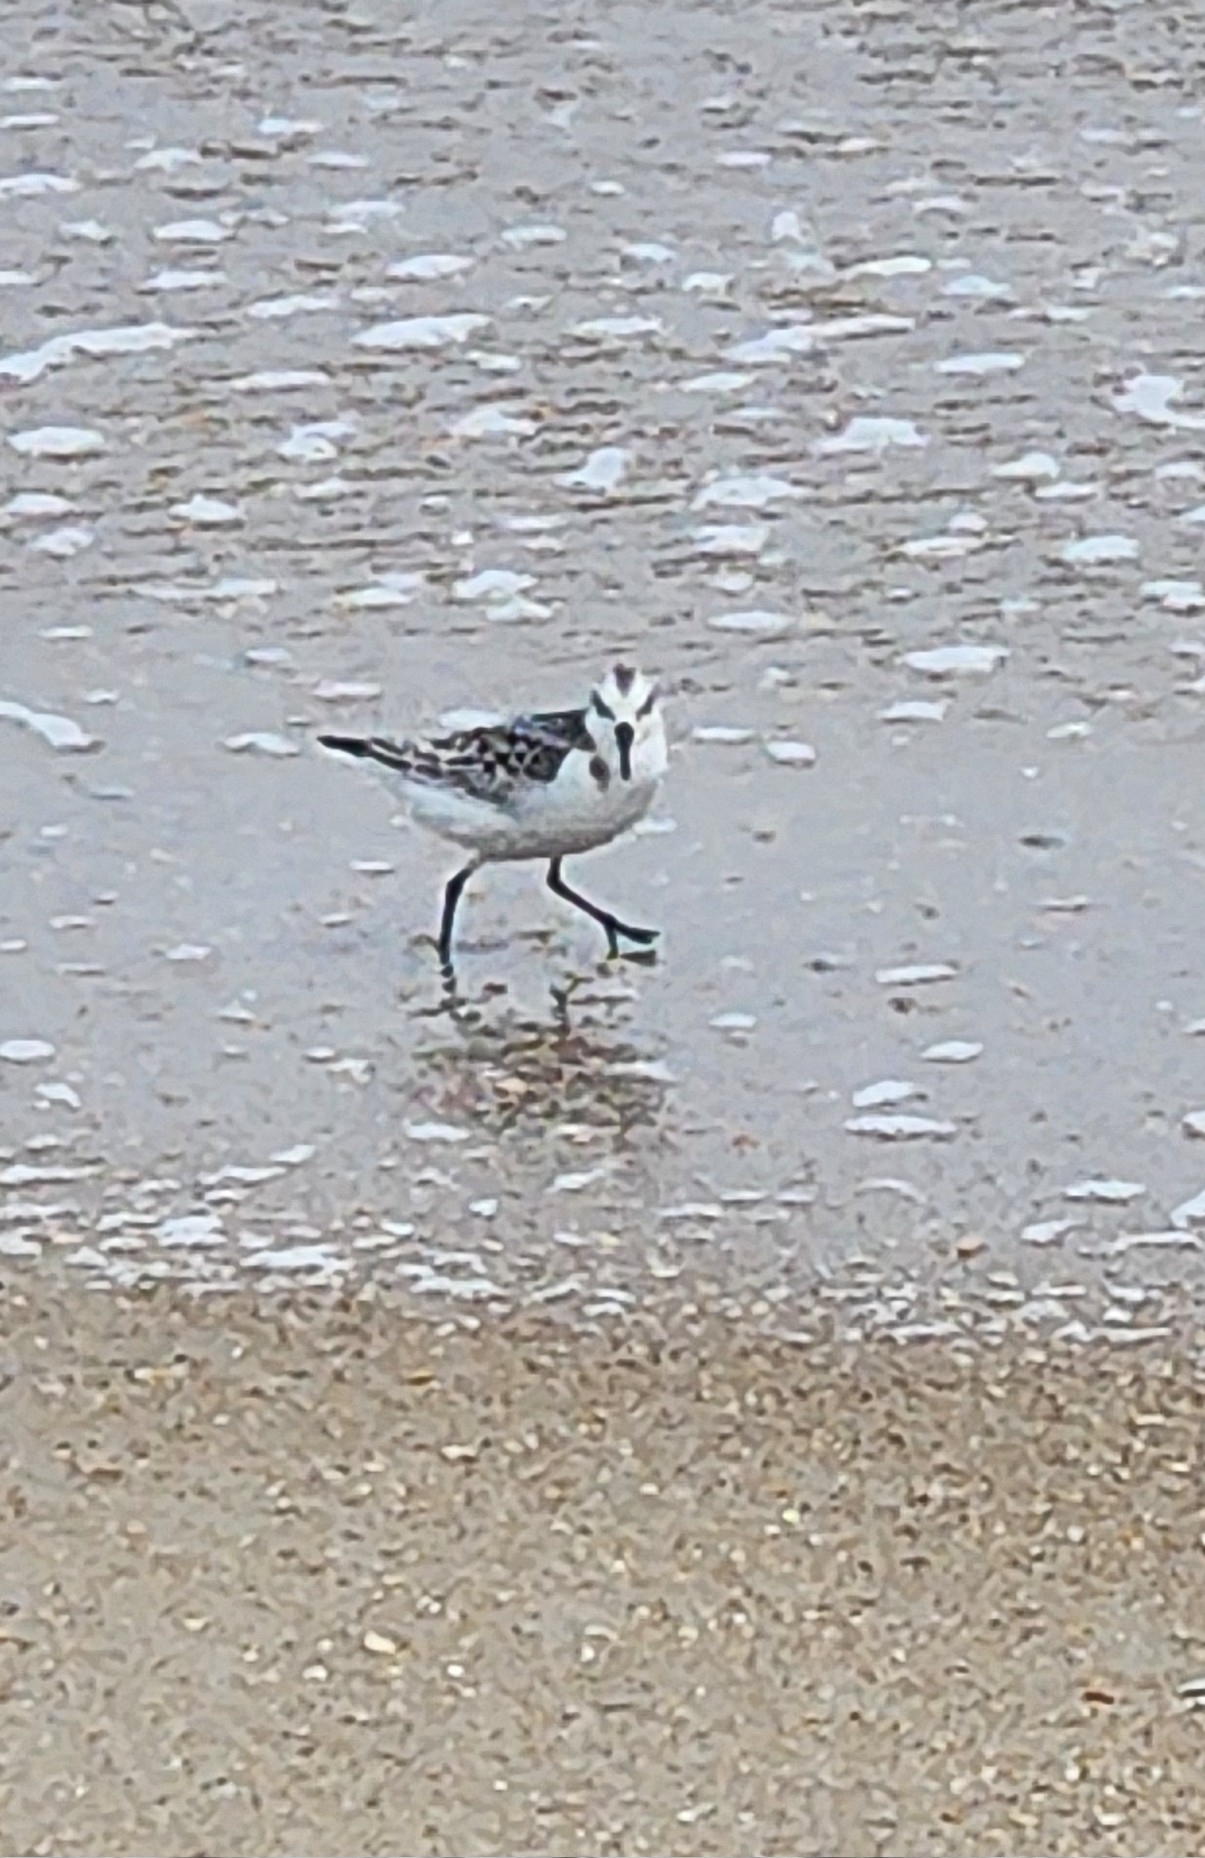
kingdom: Animalia
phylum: Chordata
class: Aves
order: Charadriiformes
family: Scolopacidae
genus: Calidris
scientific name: Calidris alba
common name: Sanderling
